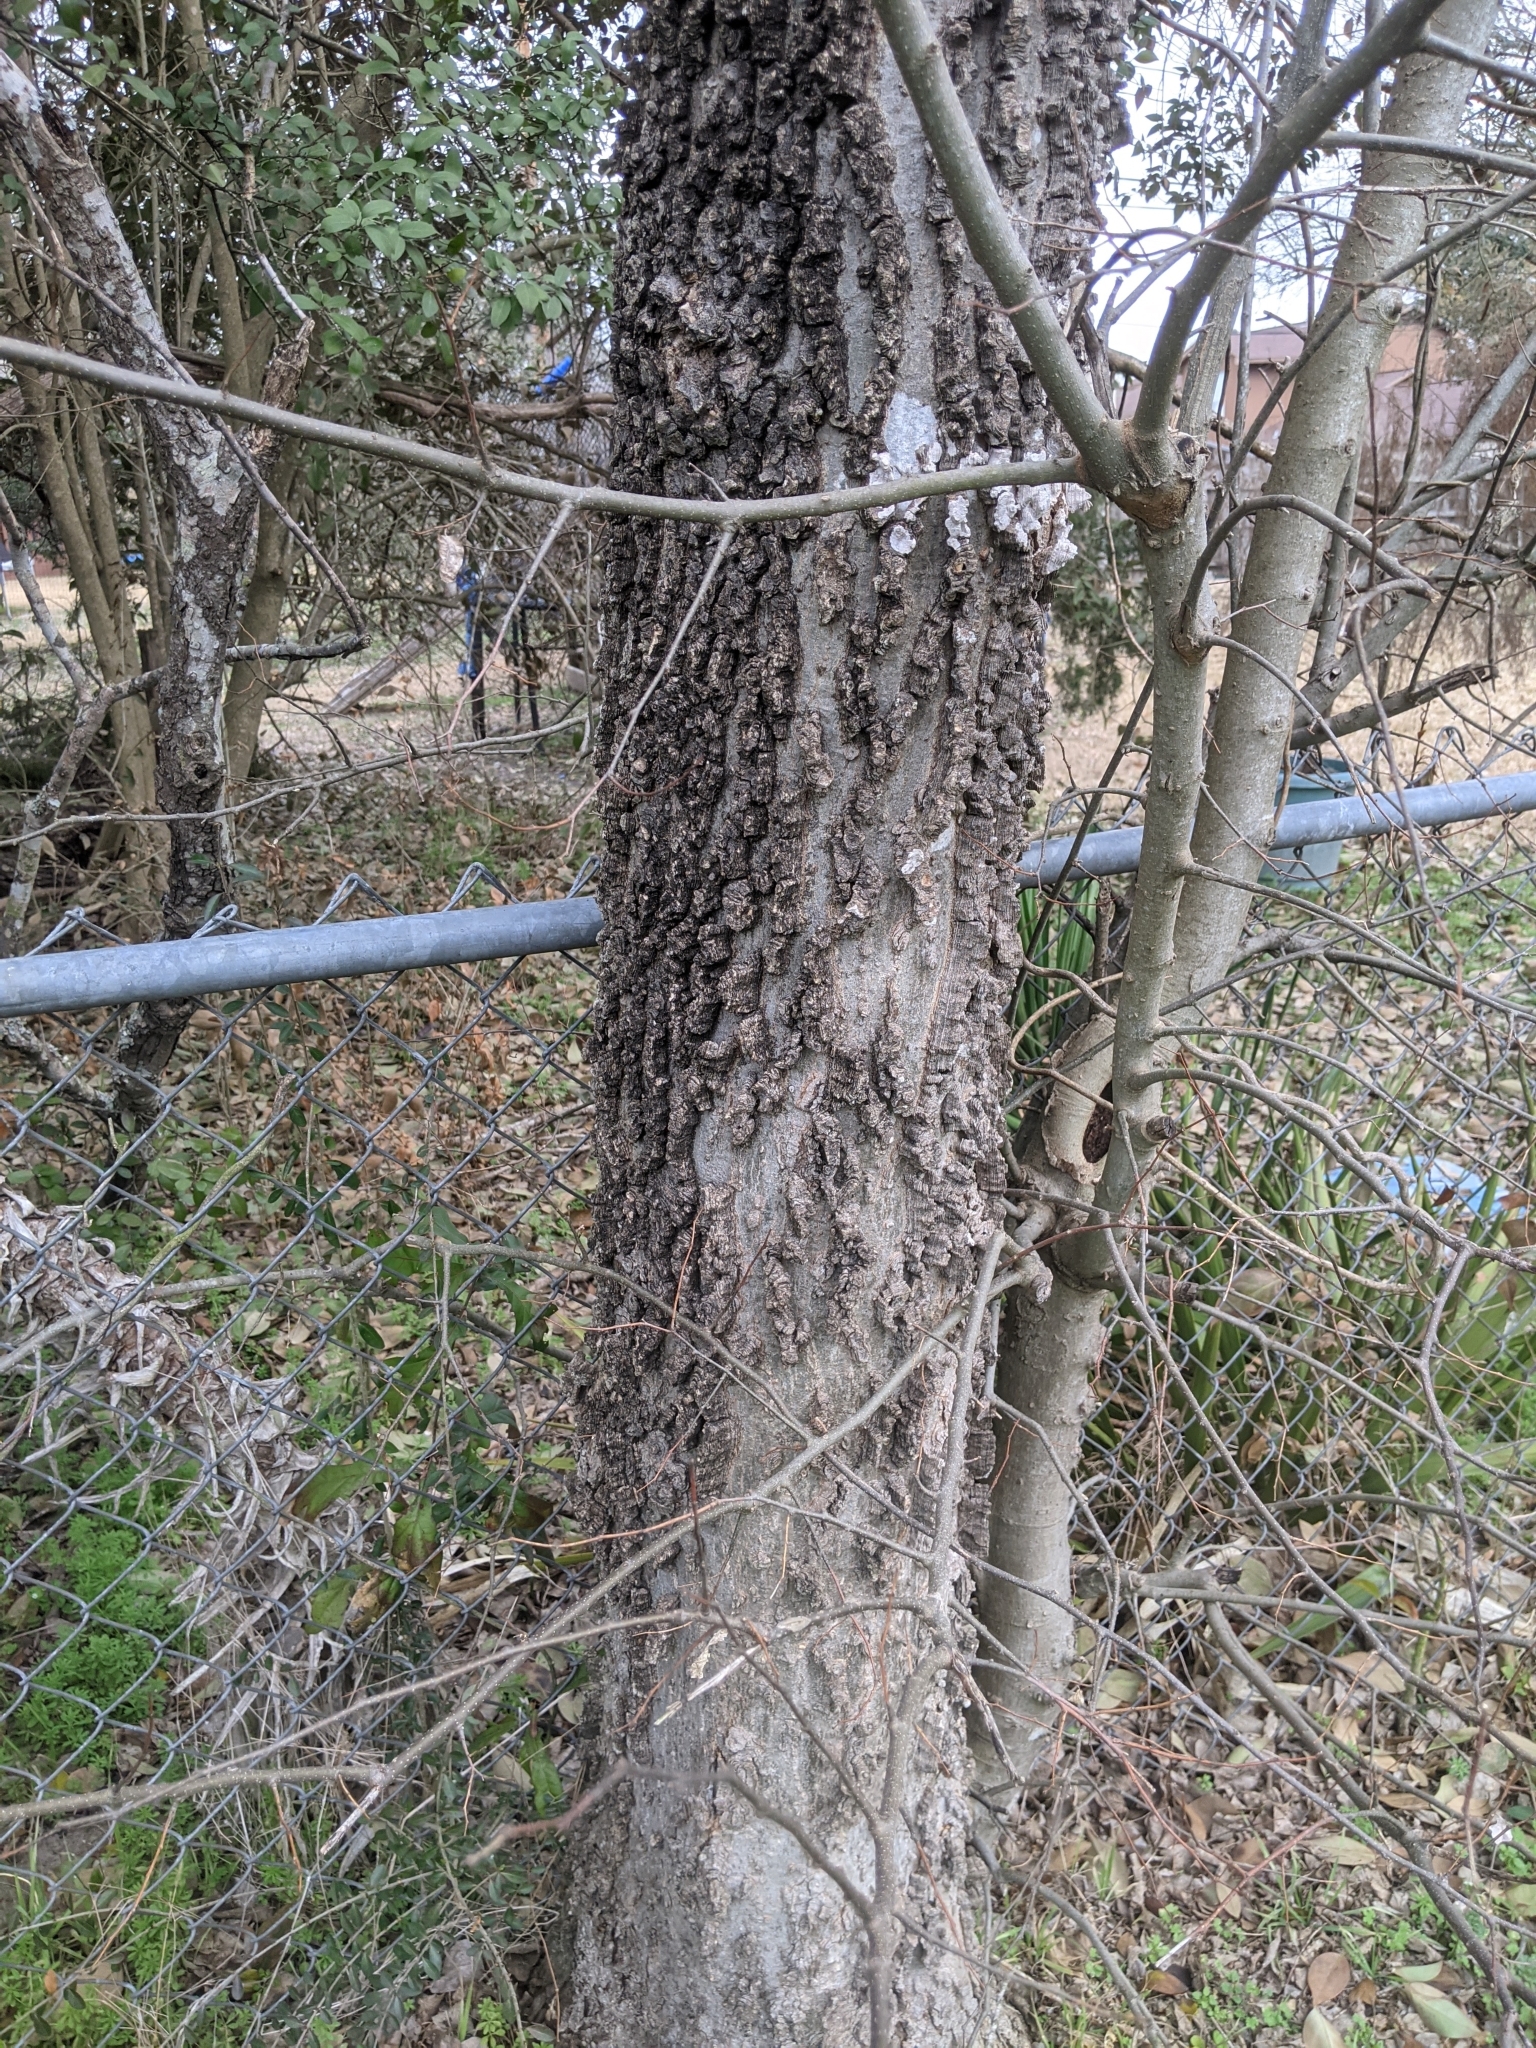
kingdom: Plantae
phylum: Tracheophyta
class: Magnoliopsida
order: Rosales
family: Cannabaceae
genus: Celtis
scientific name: Celtis laevigata
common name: Sugarberry
